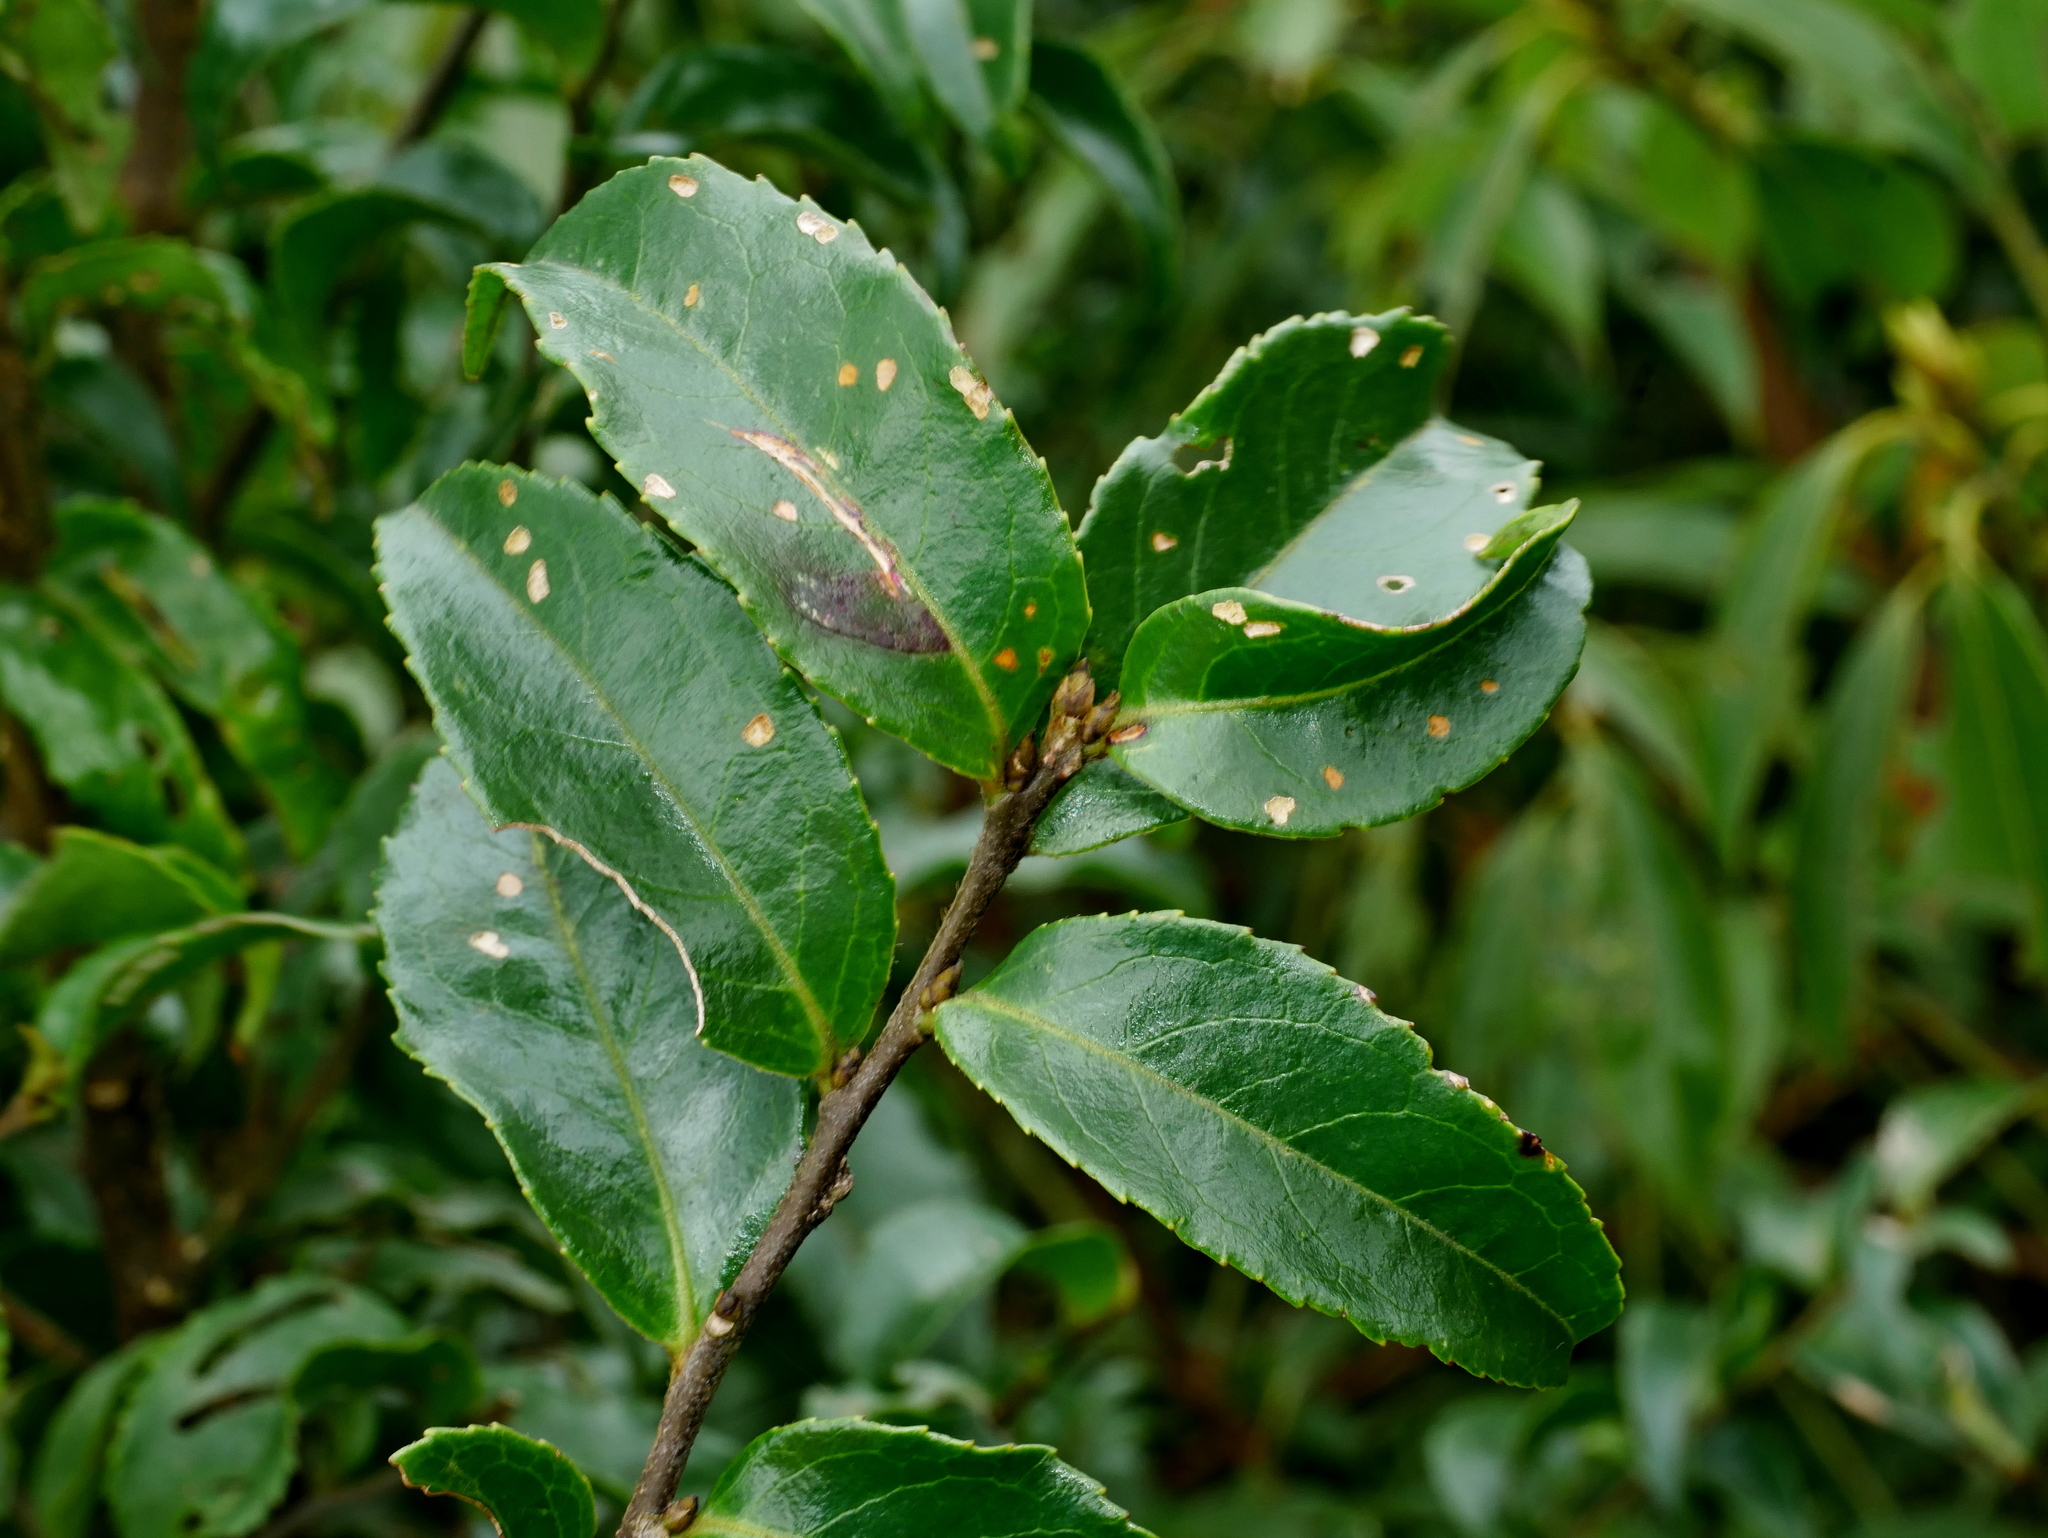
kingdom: Plantae
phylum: Tracheophyta
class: Magnoliopsida
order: Ericales
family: Symplocaceae
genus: Symplocos
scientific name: Symplocos lancifolia
